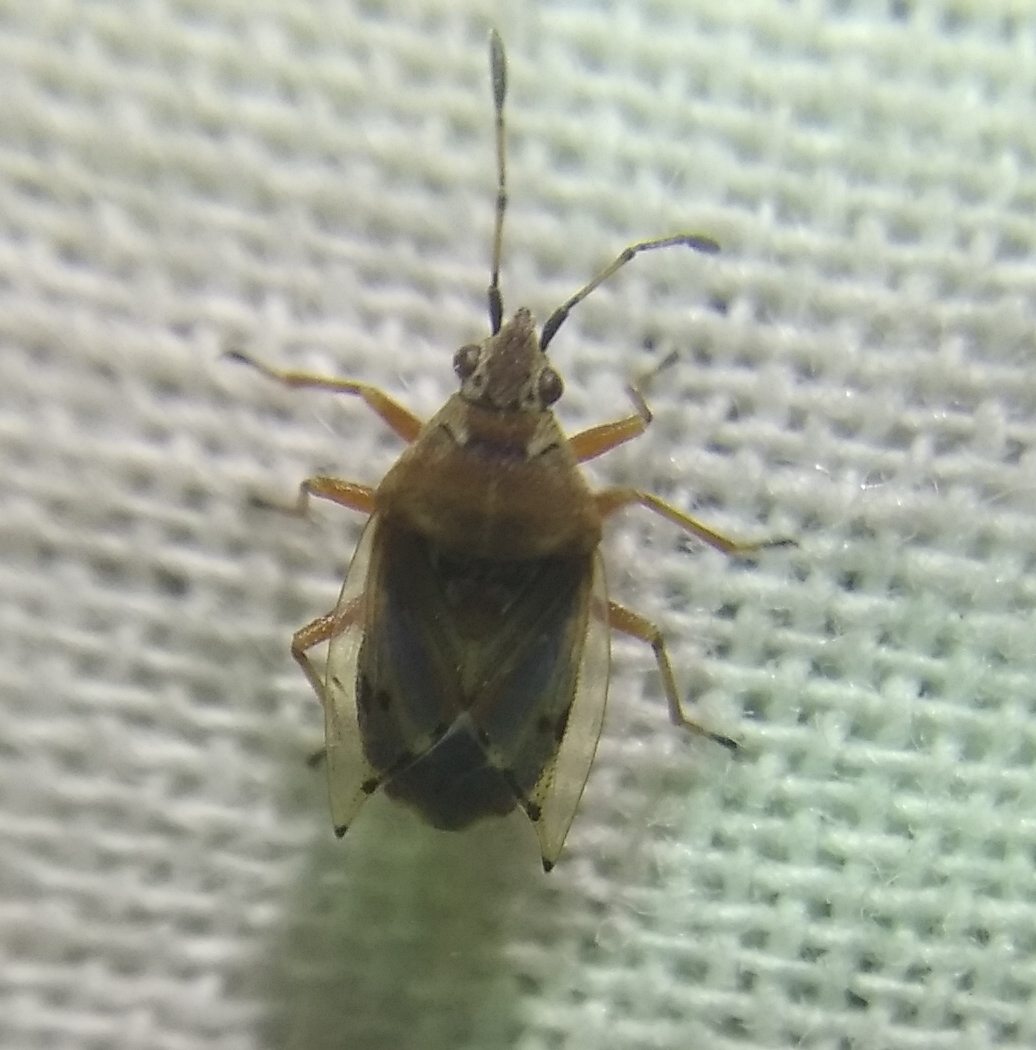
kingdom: Animalia
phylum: Arthropoda
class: Insecta
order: Hemiptera
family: Lygaeidae
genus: Kleidocerys
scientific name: Kleidocerys resedae
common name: Birch catkin bug
